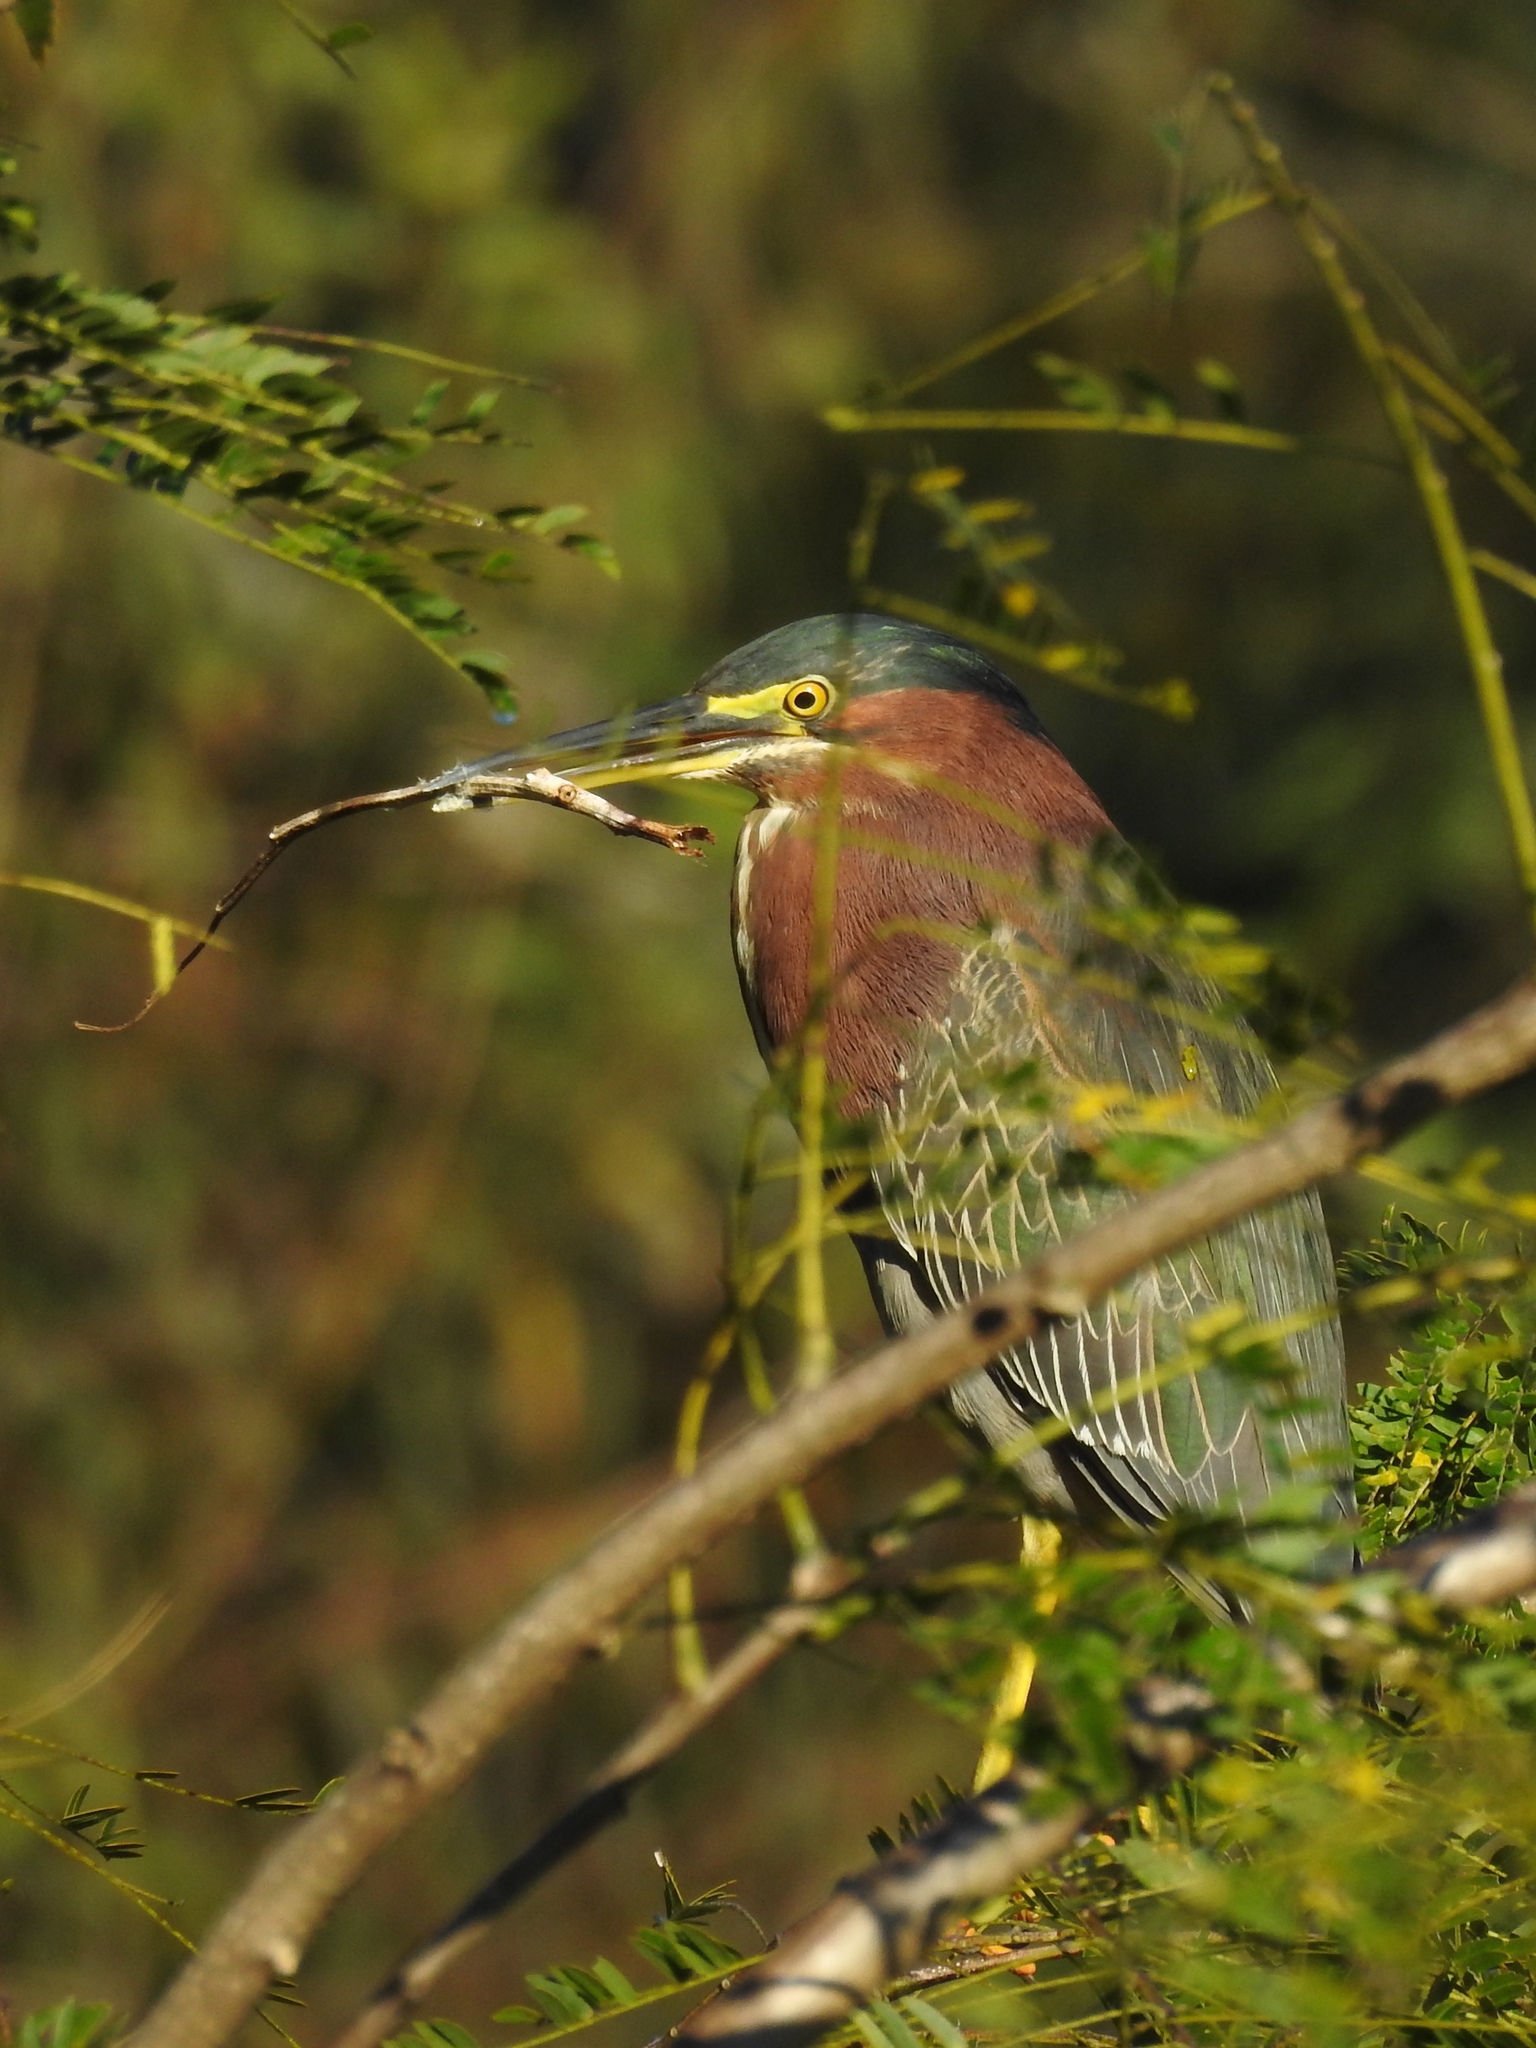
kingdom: Animalia
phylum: Chordata
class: Aves
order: Pelecaniformes
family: Ardeidae
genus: Butorides
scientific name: Butorides virescens
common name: Green heron
